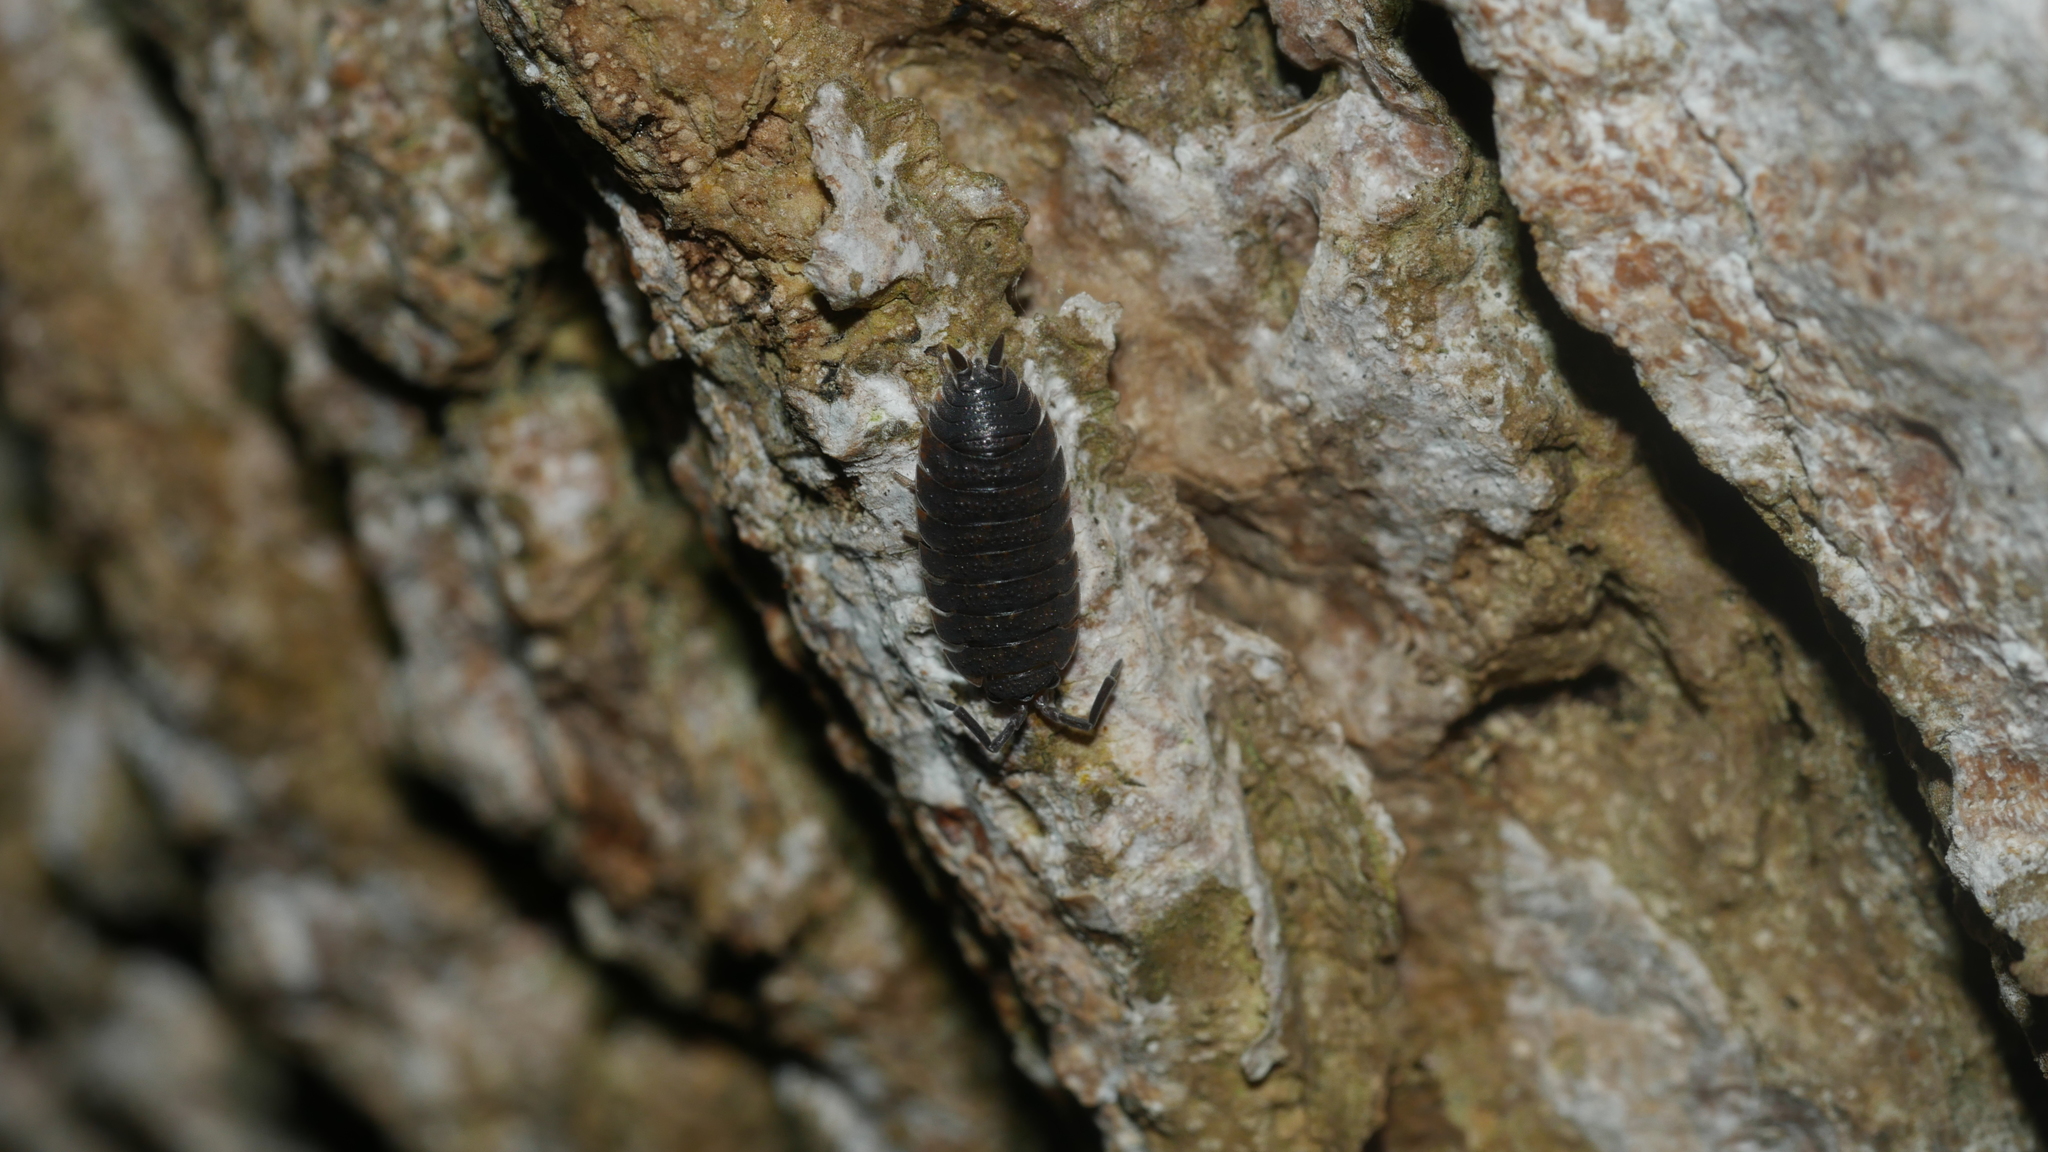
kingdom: Animalia
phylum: Arthropoda
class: Malacostraca
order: Isopoda
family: Porcellionidae
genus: Porcellio
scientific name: Porcellio scaber
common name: Common rough woodlouse
